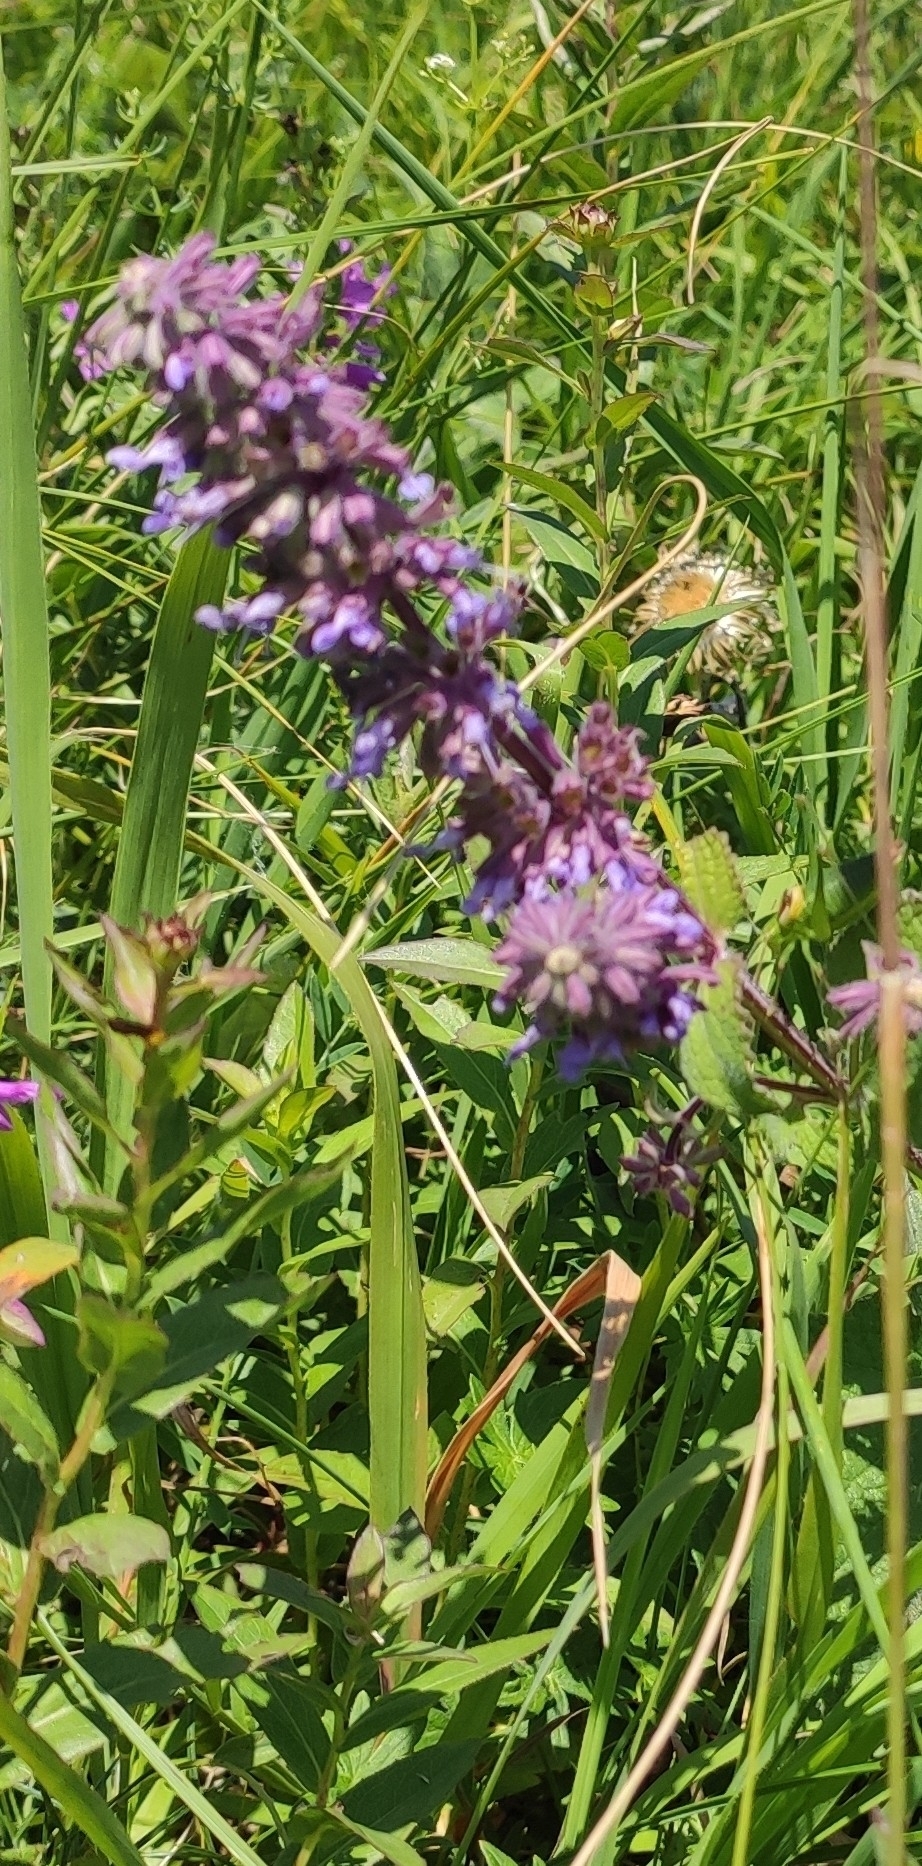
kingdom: Plantae
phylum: Tracheophyta
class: Magnoliopsida
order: Lamiales
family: Lamiaceae
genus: Salvia
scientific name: Salvia verticillata
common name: Whorled clary
